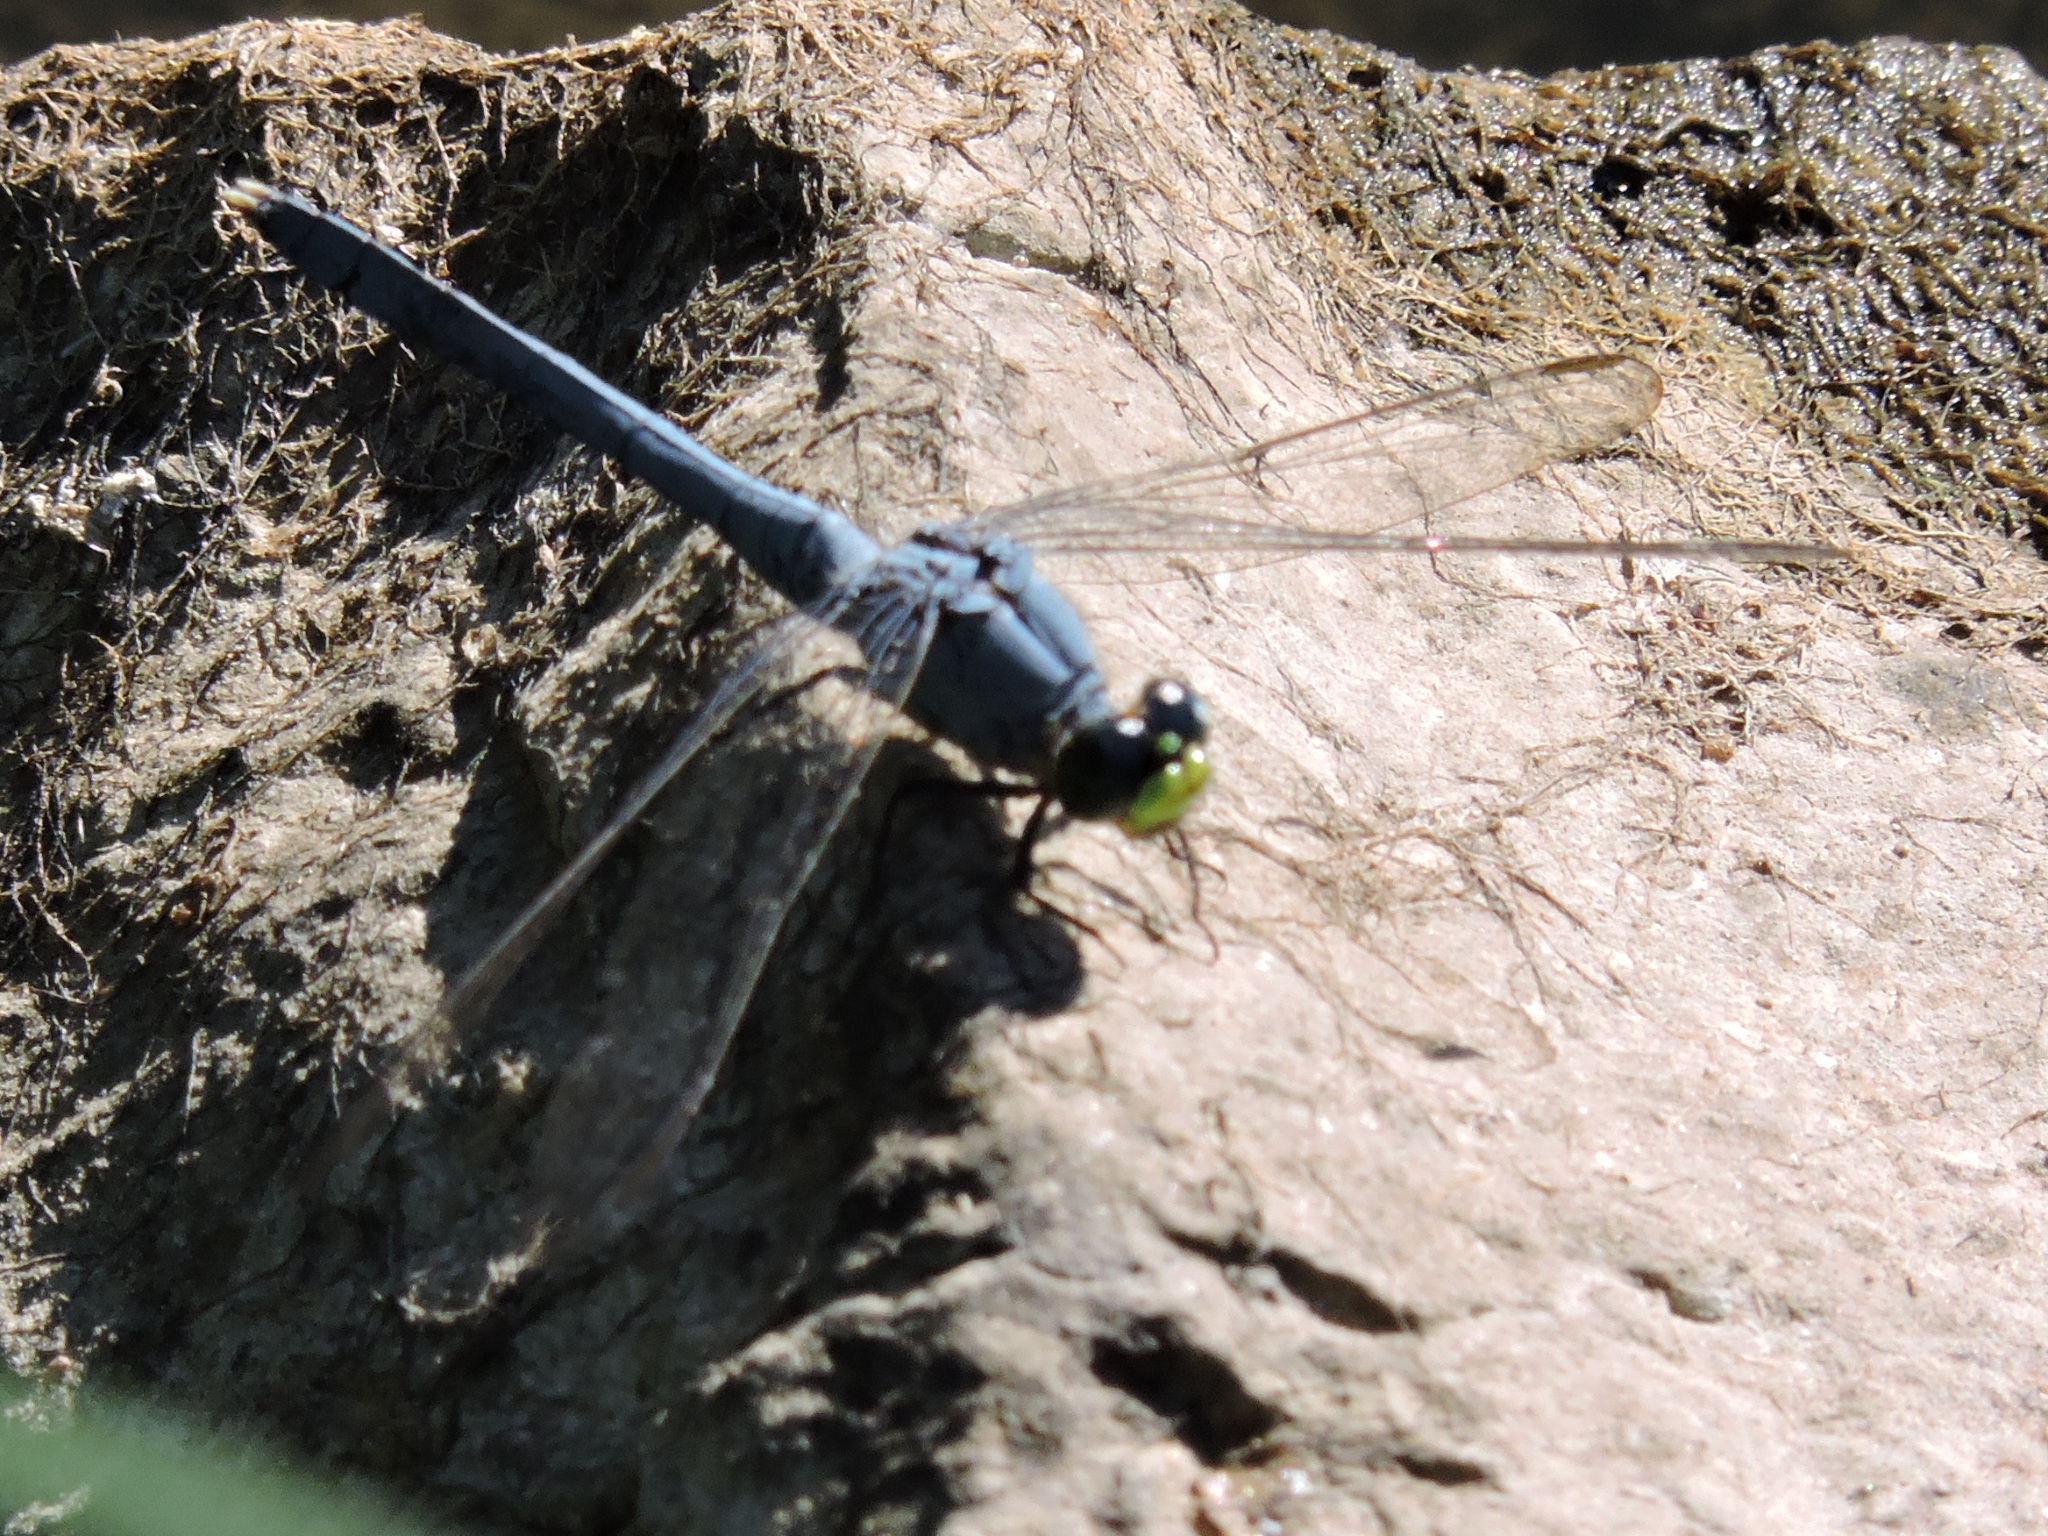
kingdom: Animalia
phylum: Arthropoda
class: Insecta
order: Odonata
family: Libellulidae
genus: Erythemis
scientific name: Erythemis simplicicollis
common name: Eastern pondhawk
